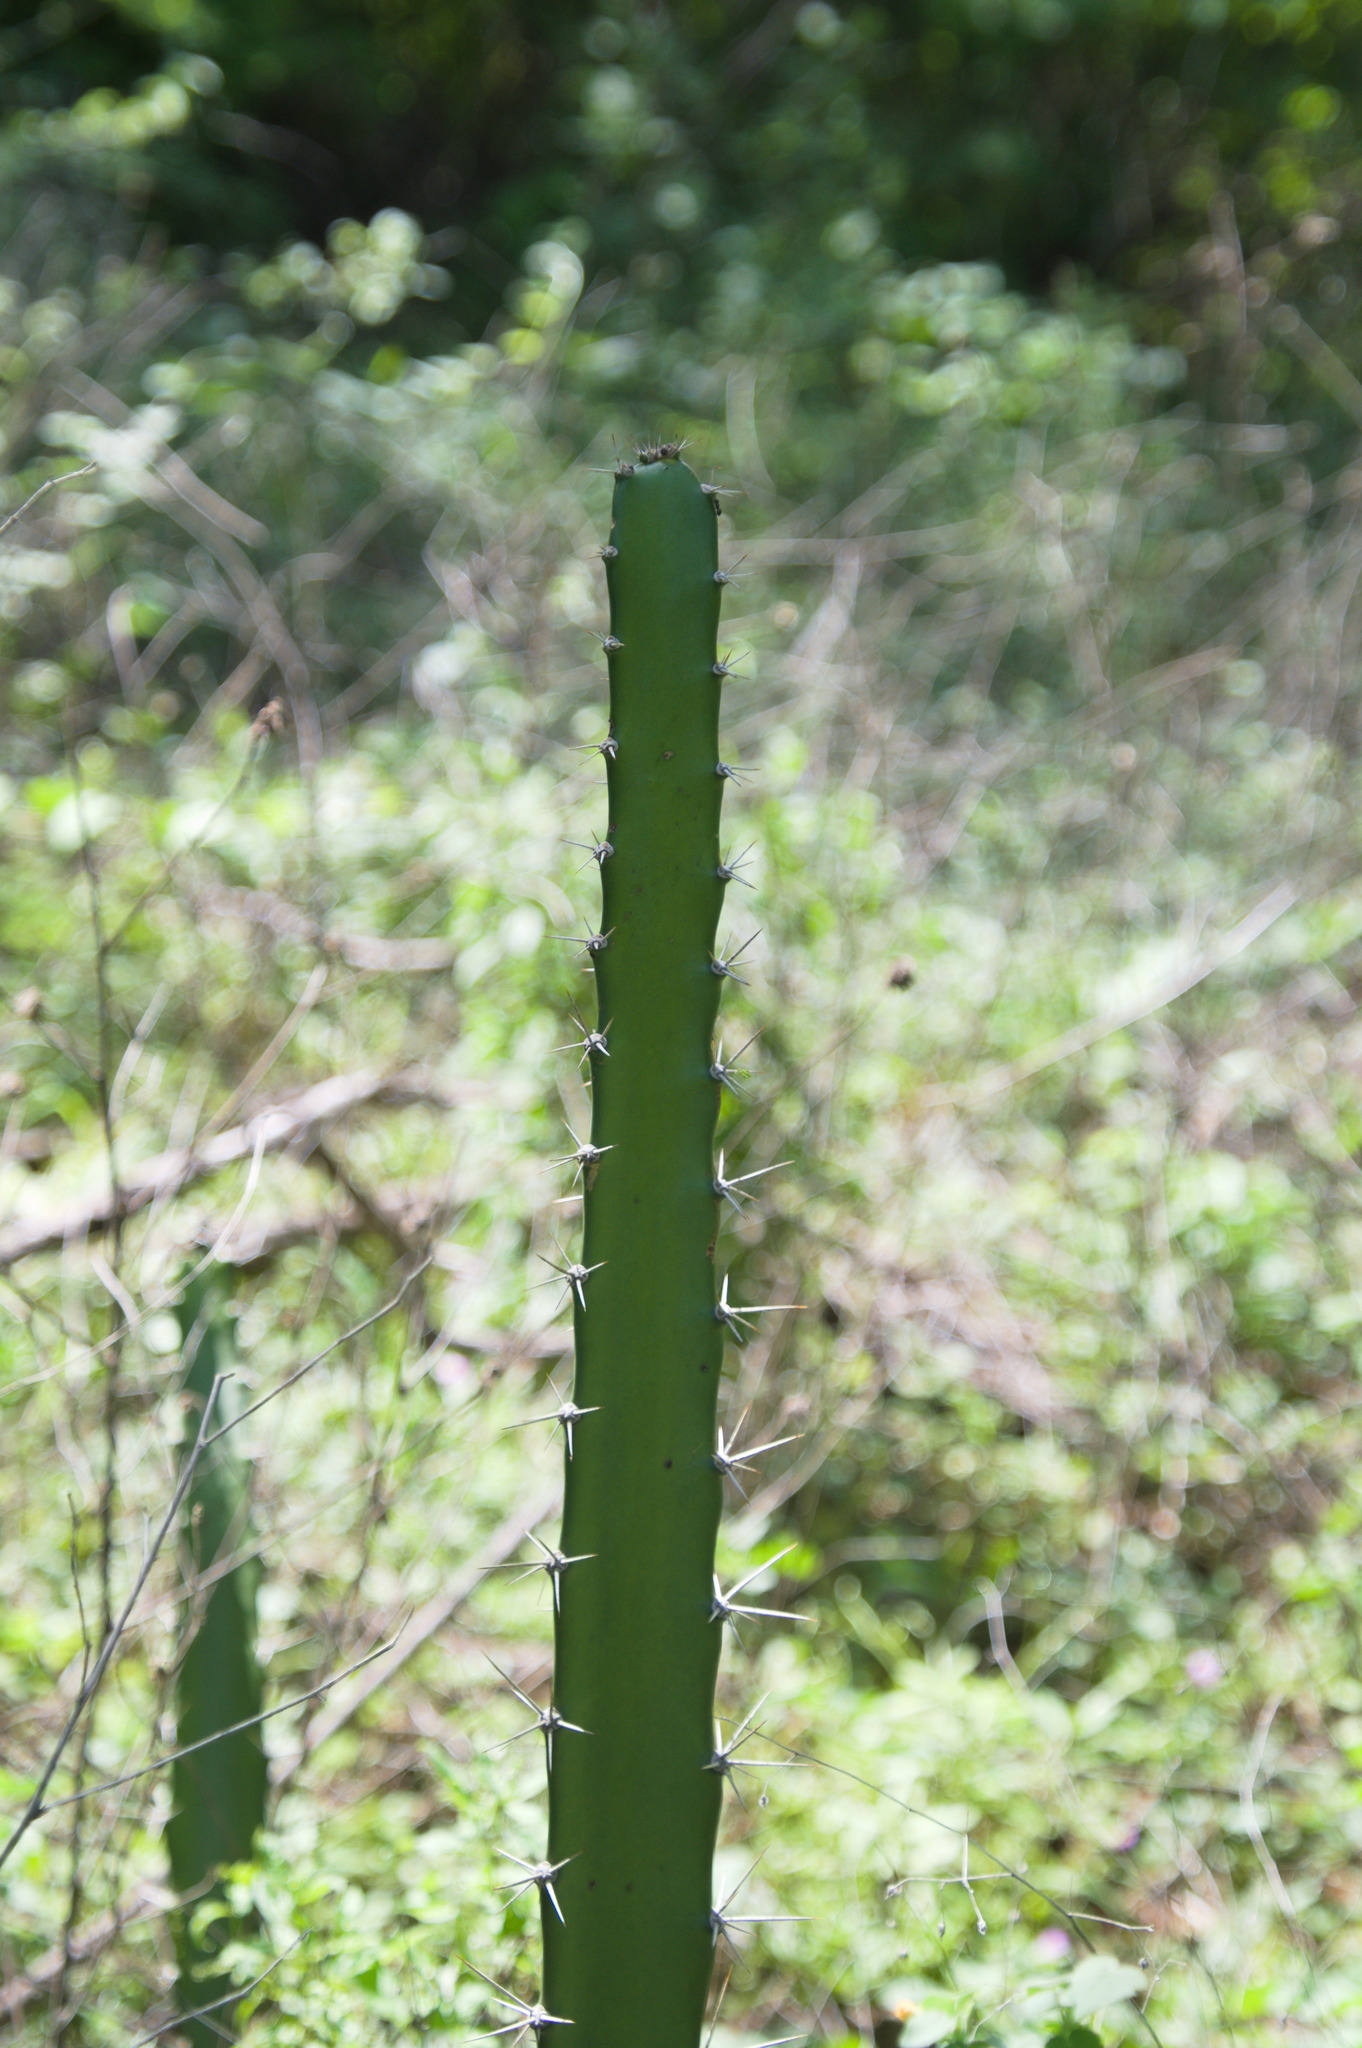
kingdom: Plantae
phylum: Tracheophyta
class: Magnoliopsida
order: Caryophyllales
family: Cactaceae
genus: Acanthocereus
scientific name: Acanthocereus tetragonus
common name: Triangle cactus
